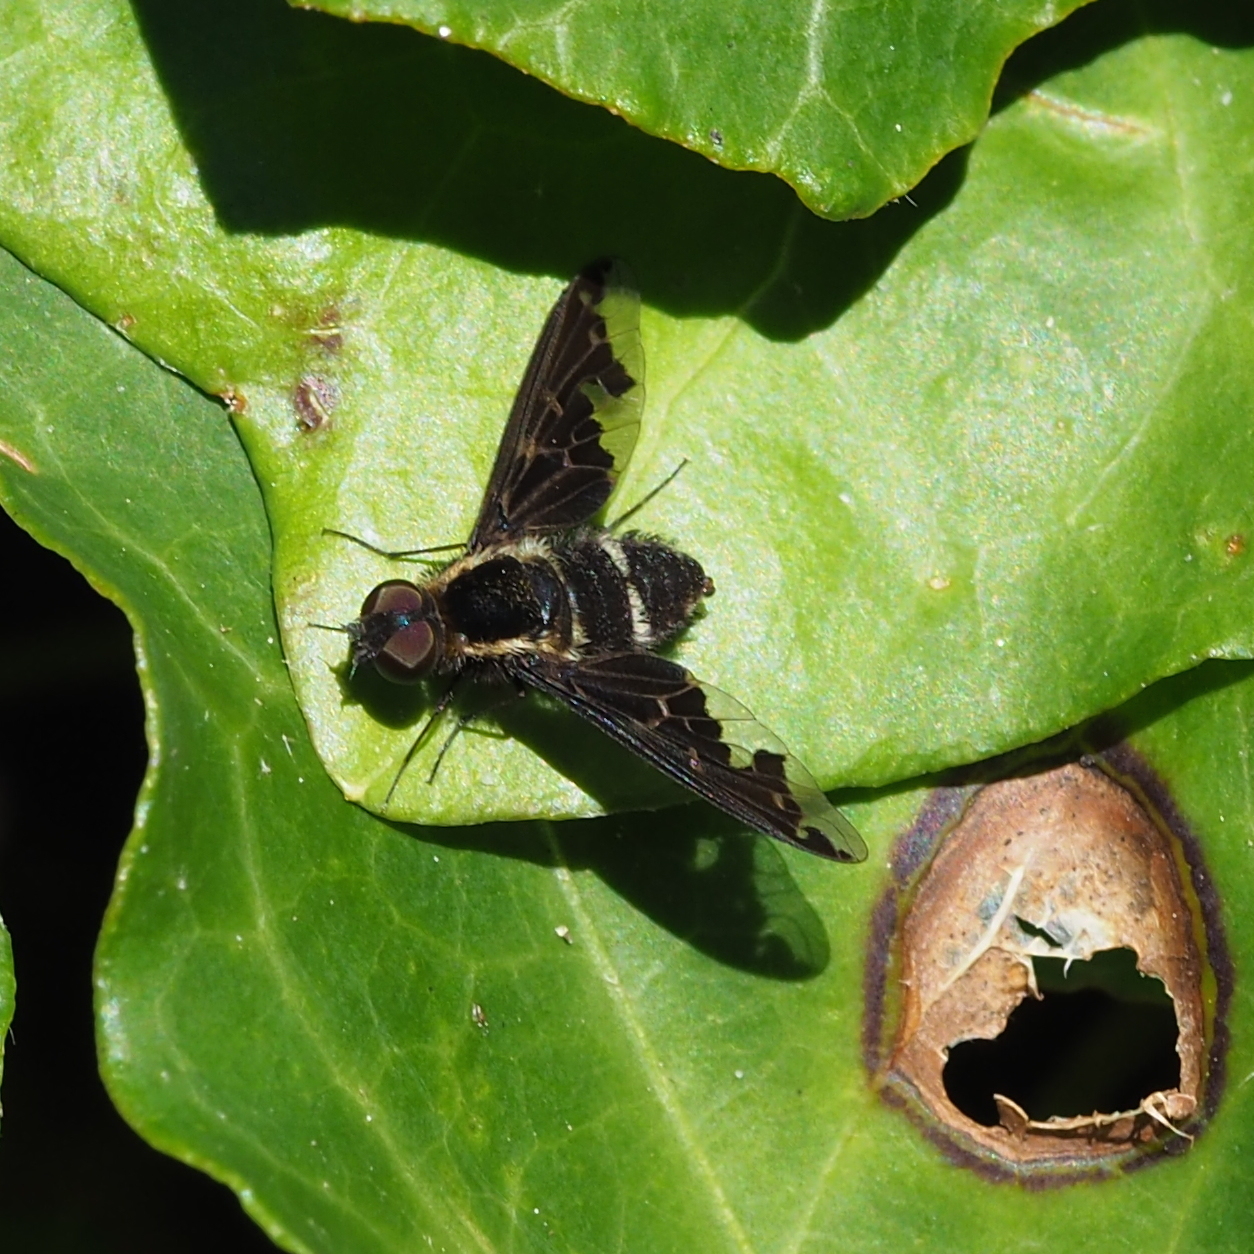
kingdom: Animalia
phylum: Arthropoda
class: Insecta
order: Diptera
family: Bombyliidae
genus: Hemipenthes
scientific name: Hemipenthes maura
